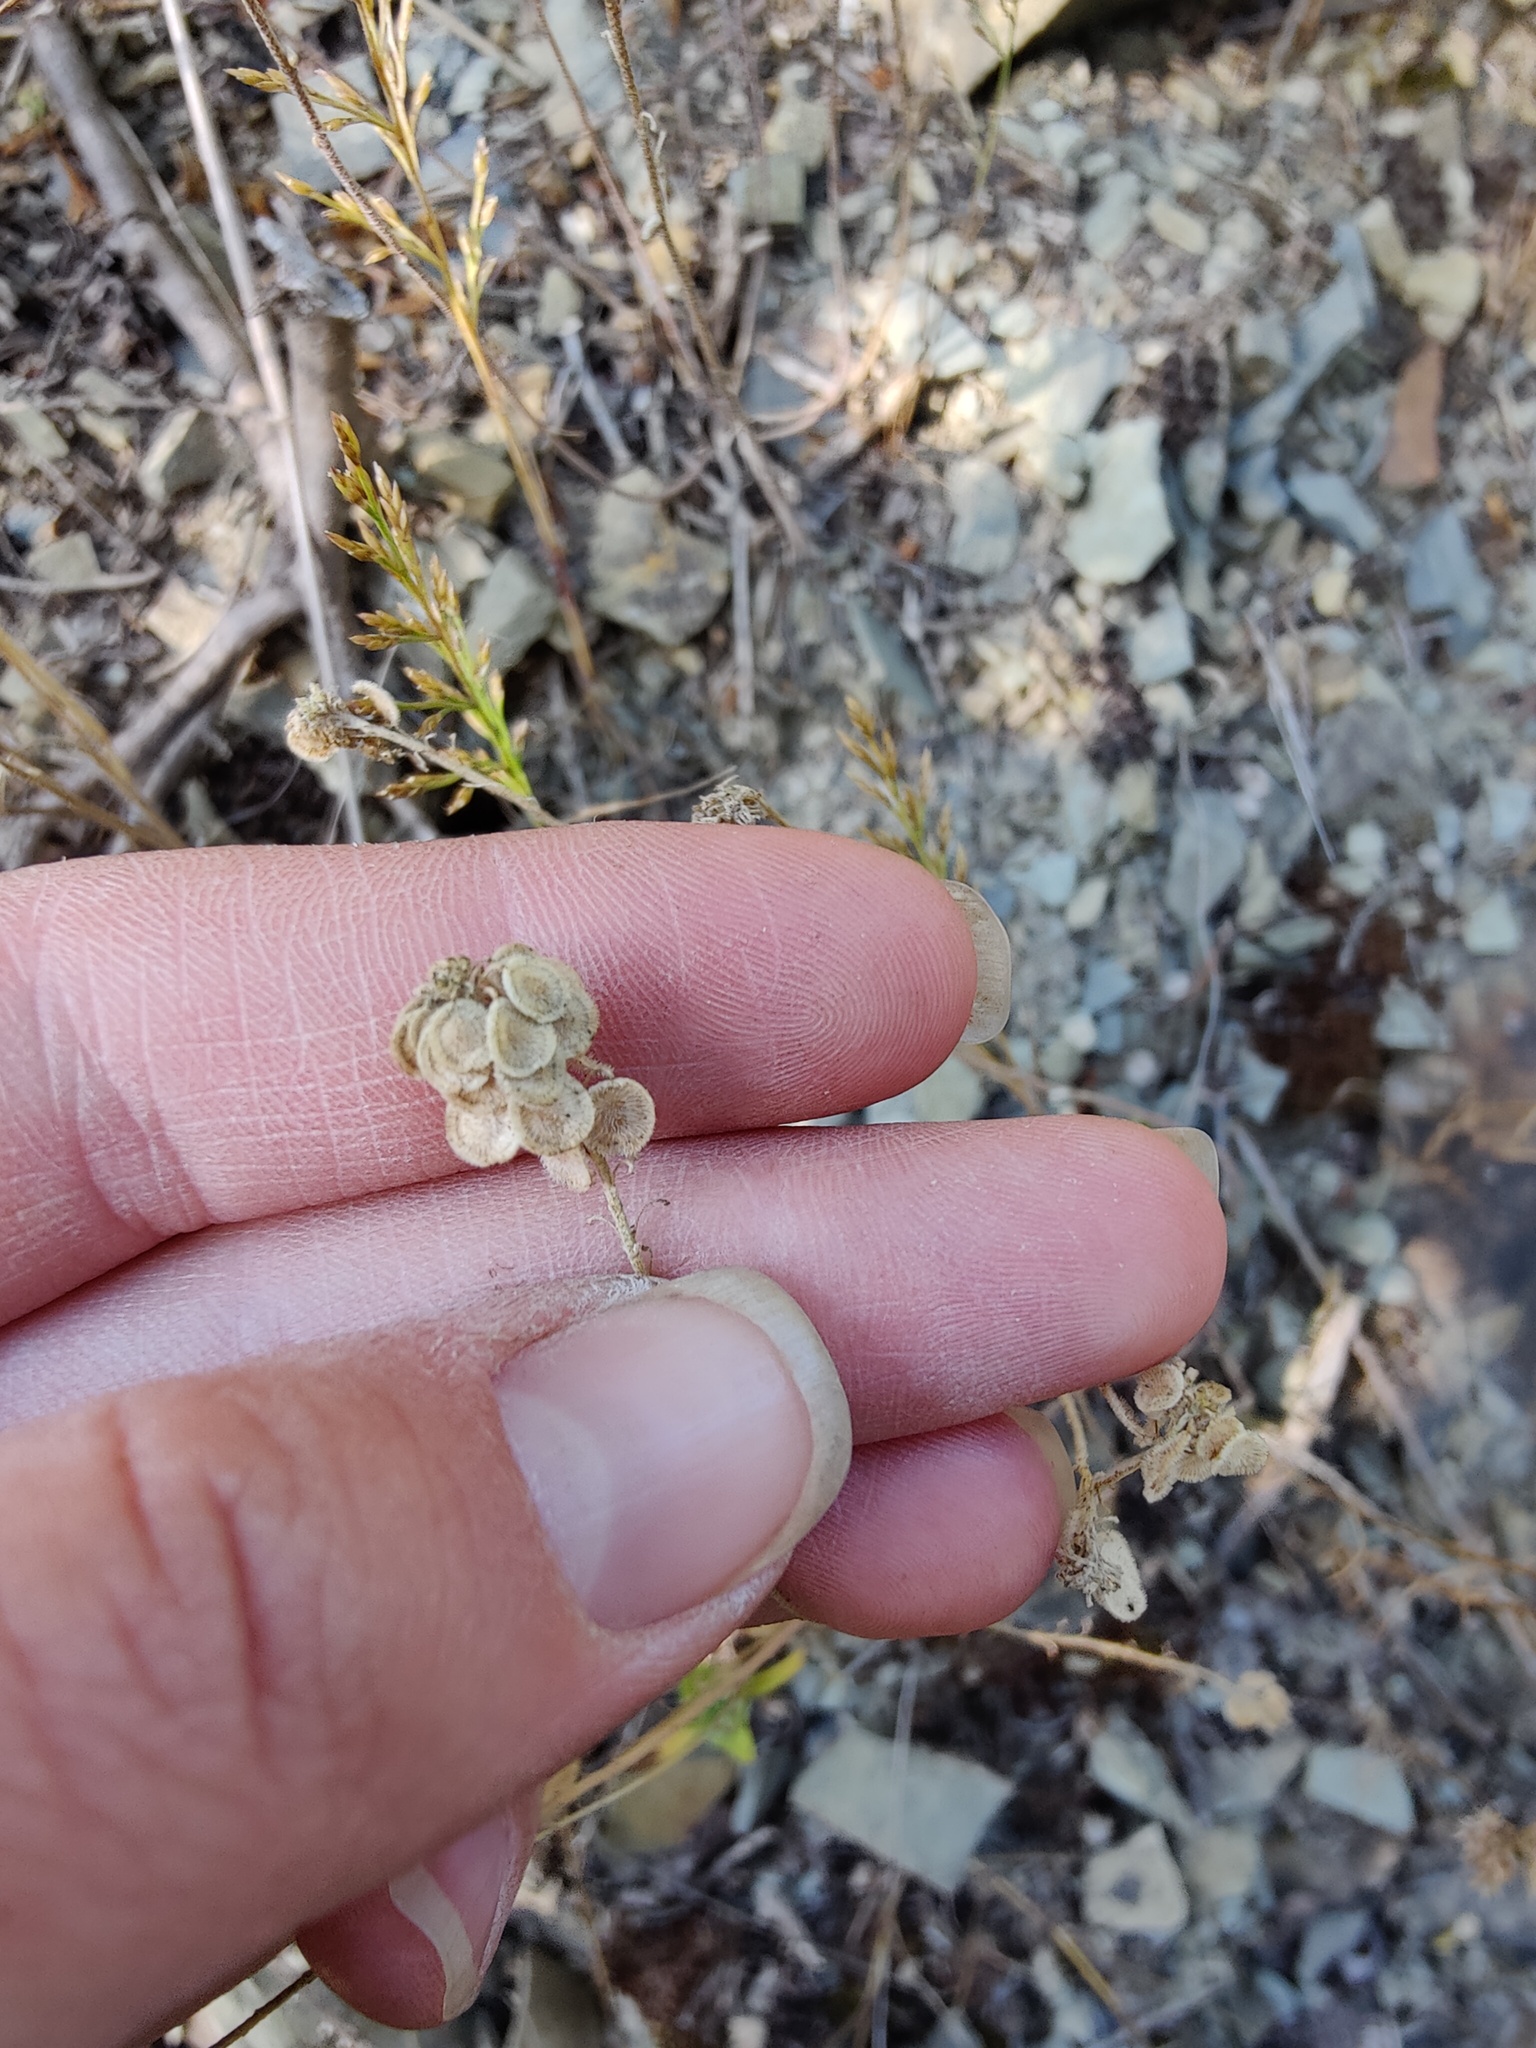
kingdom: Plantae
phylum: Tracheophyta
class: Magnoliopsida
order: Brassicales
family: Brassicaceae
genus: Clypeola
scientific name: Clypeola jonthlaspi
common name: Disk cress
